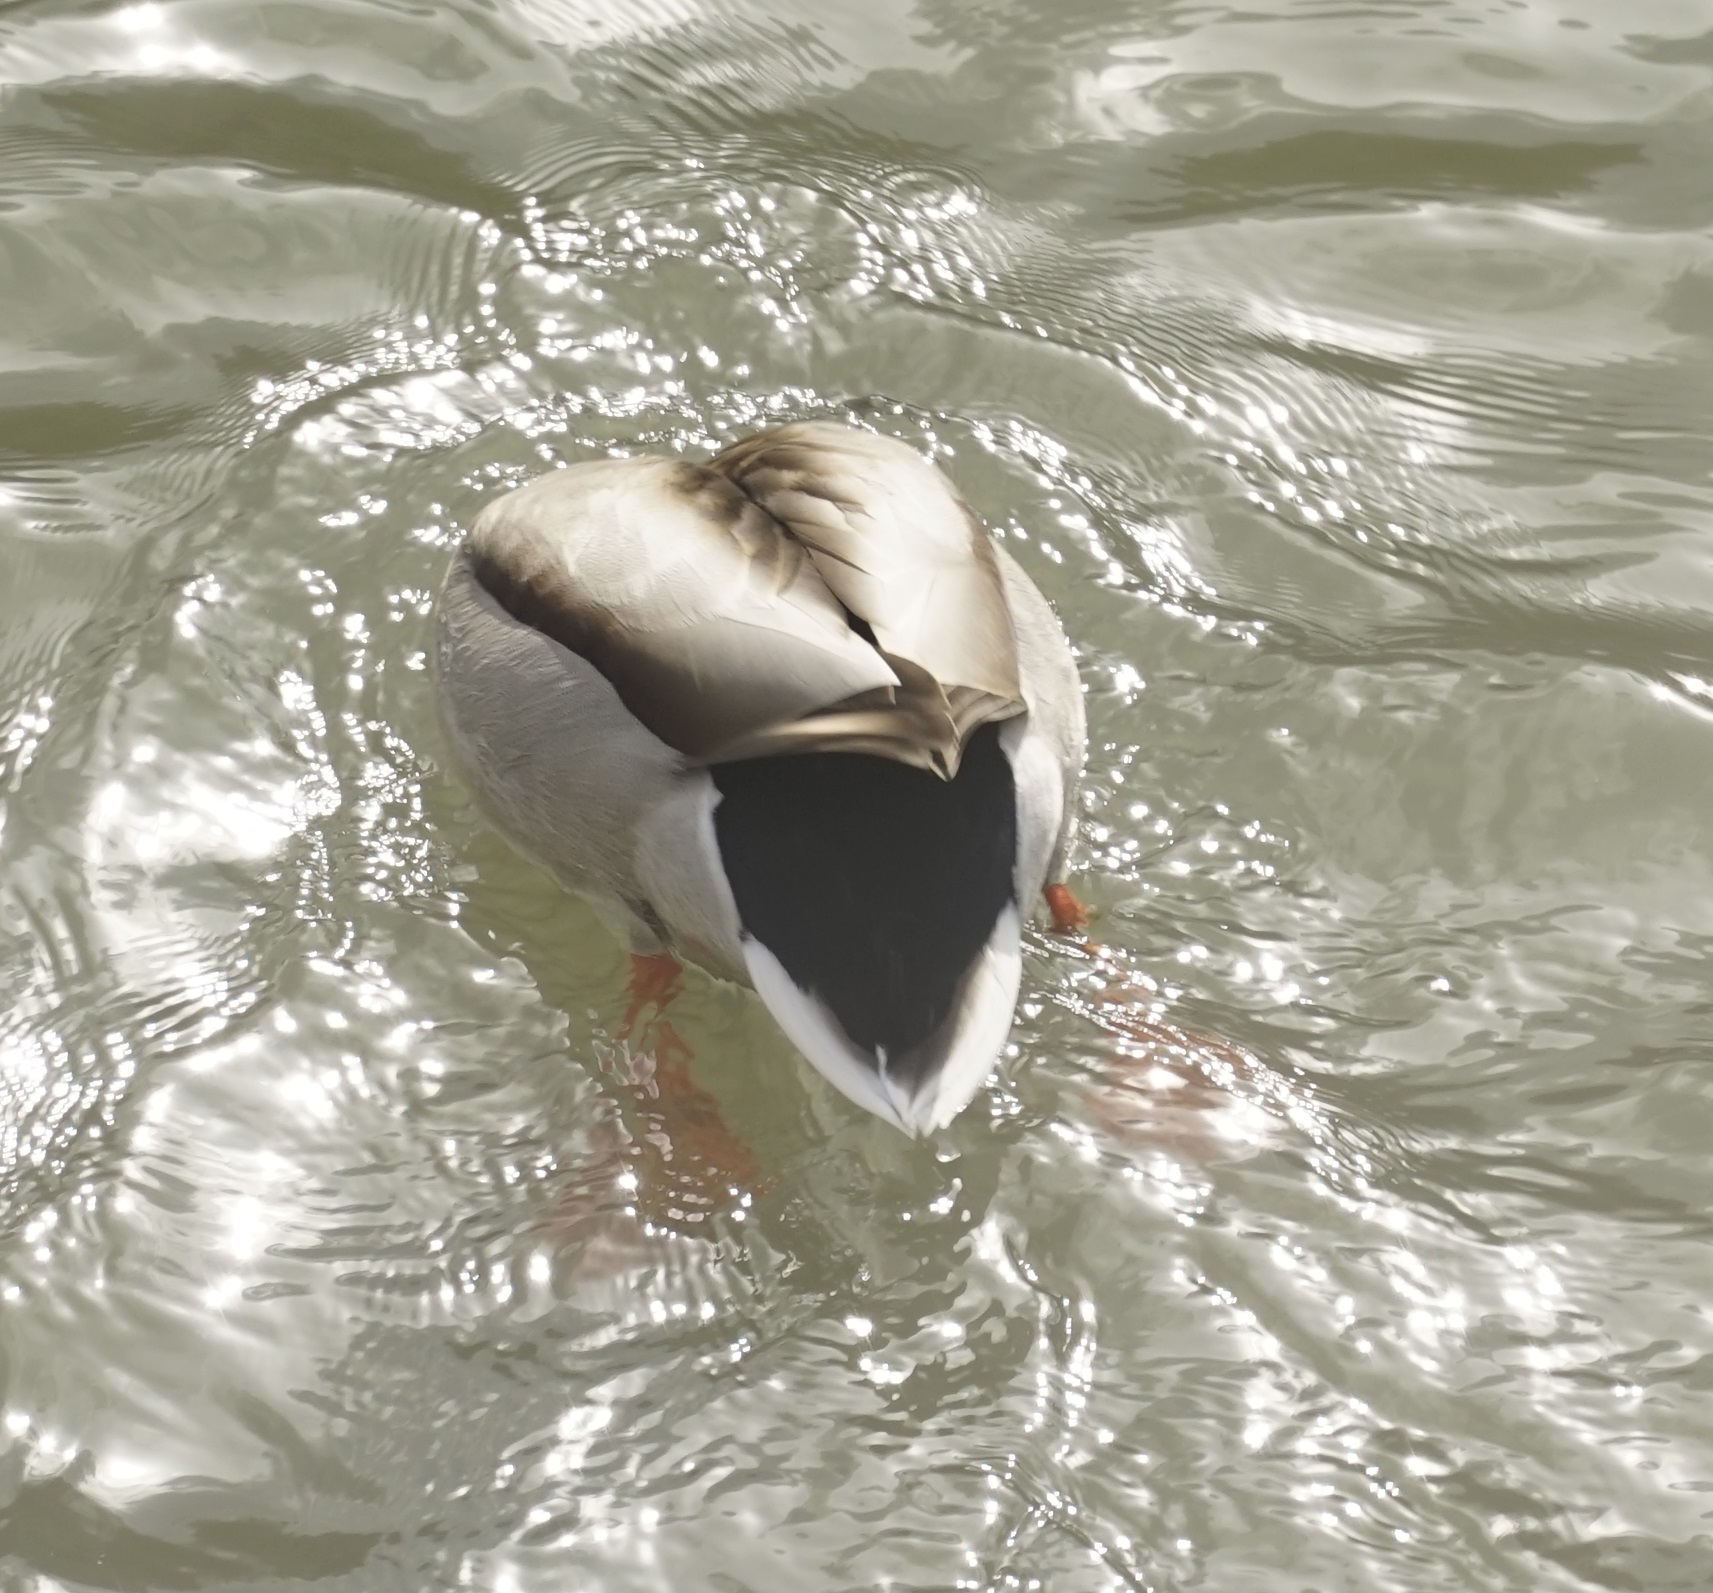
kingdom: Animalia
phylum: Chordata
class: Aves
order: Anseriformes
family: Anatidae
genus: Anas
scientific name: Anas platyrhynchos
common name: Mallard
